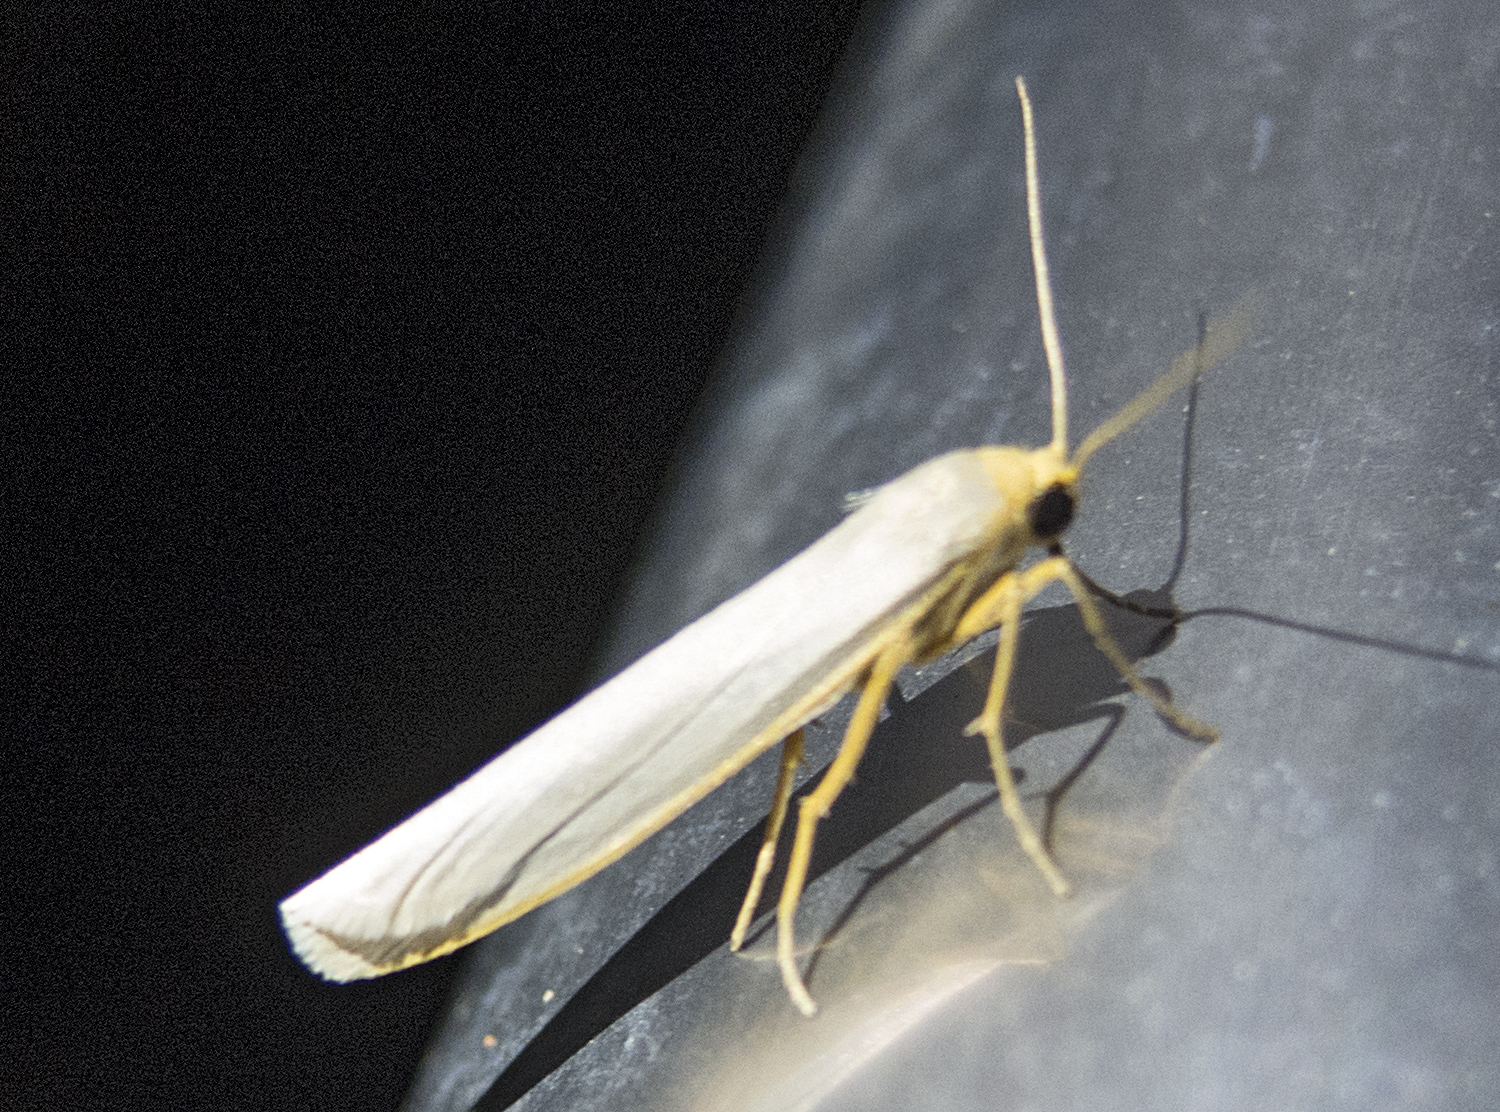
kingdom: Animalia
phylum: Arthropoda
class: Insecta
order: Lepidoptera
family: Erebidae
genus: Eilema
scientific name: Eilema caniola
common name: Hoary footman
